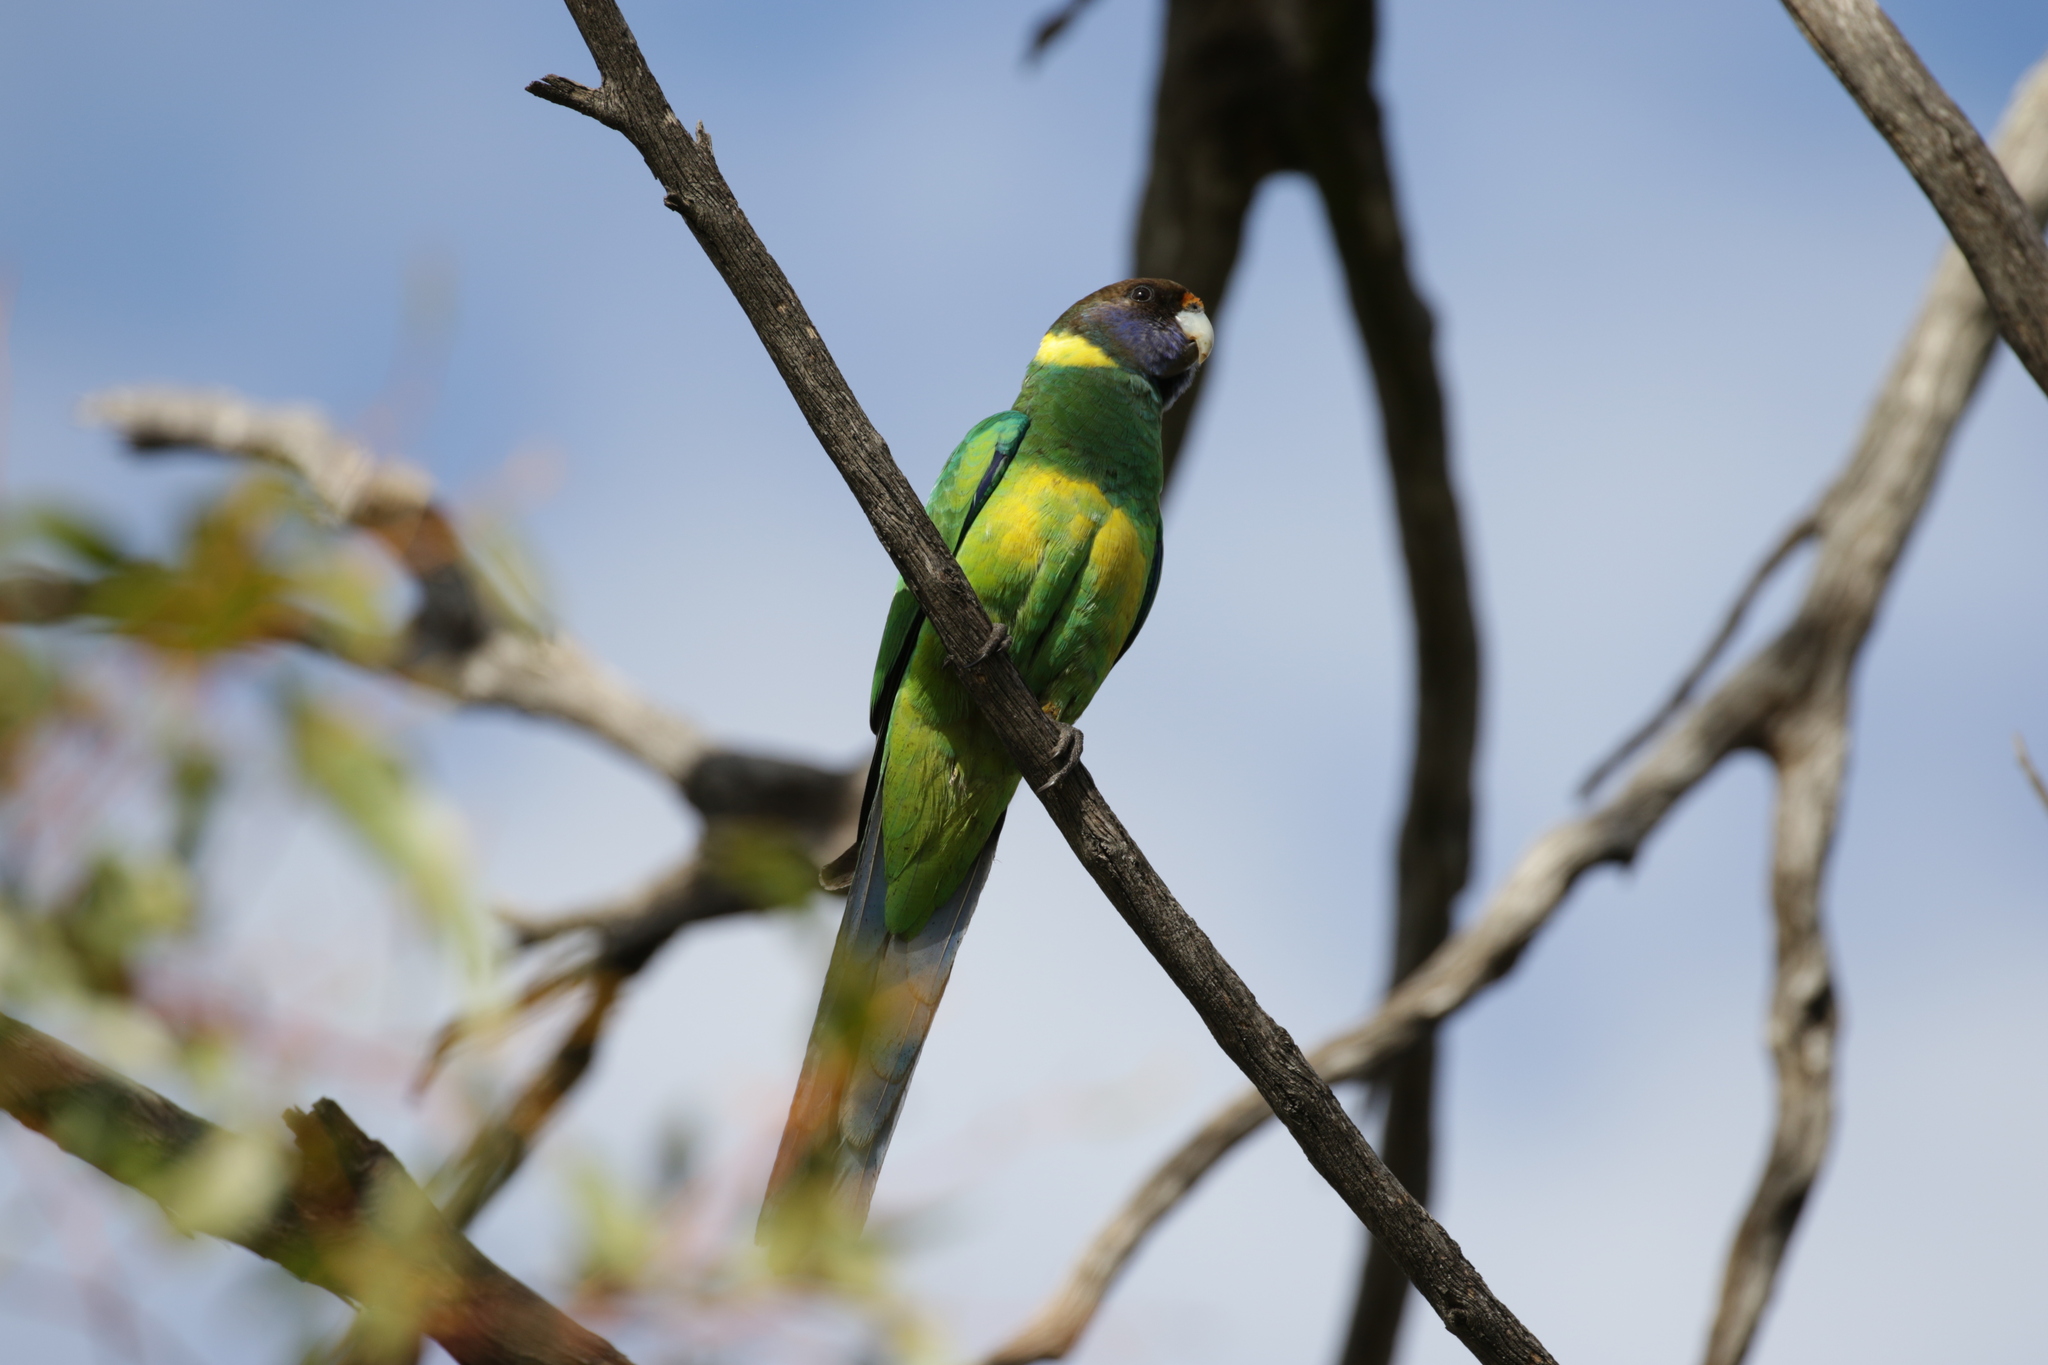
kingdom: Animalia
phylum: Chordata
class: Aves
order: Psittaciformes
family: Psittacidae
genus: Barnardius
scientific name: Barnardius zonarius
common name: Australian ringneck
